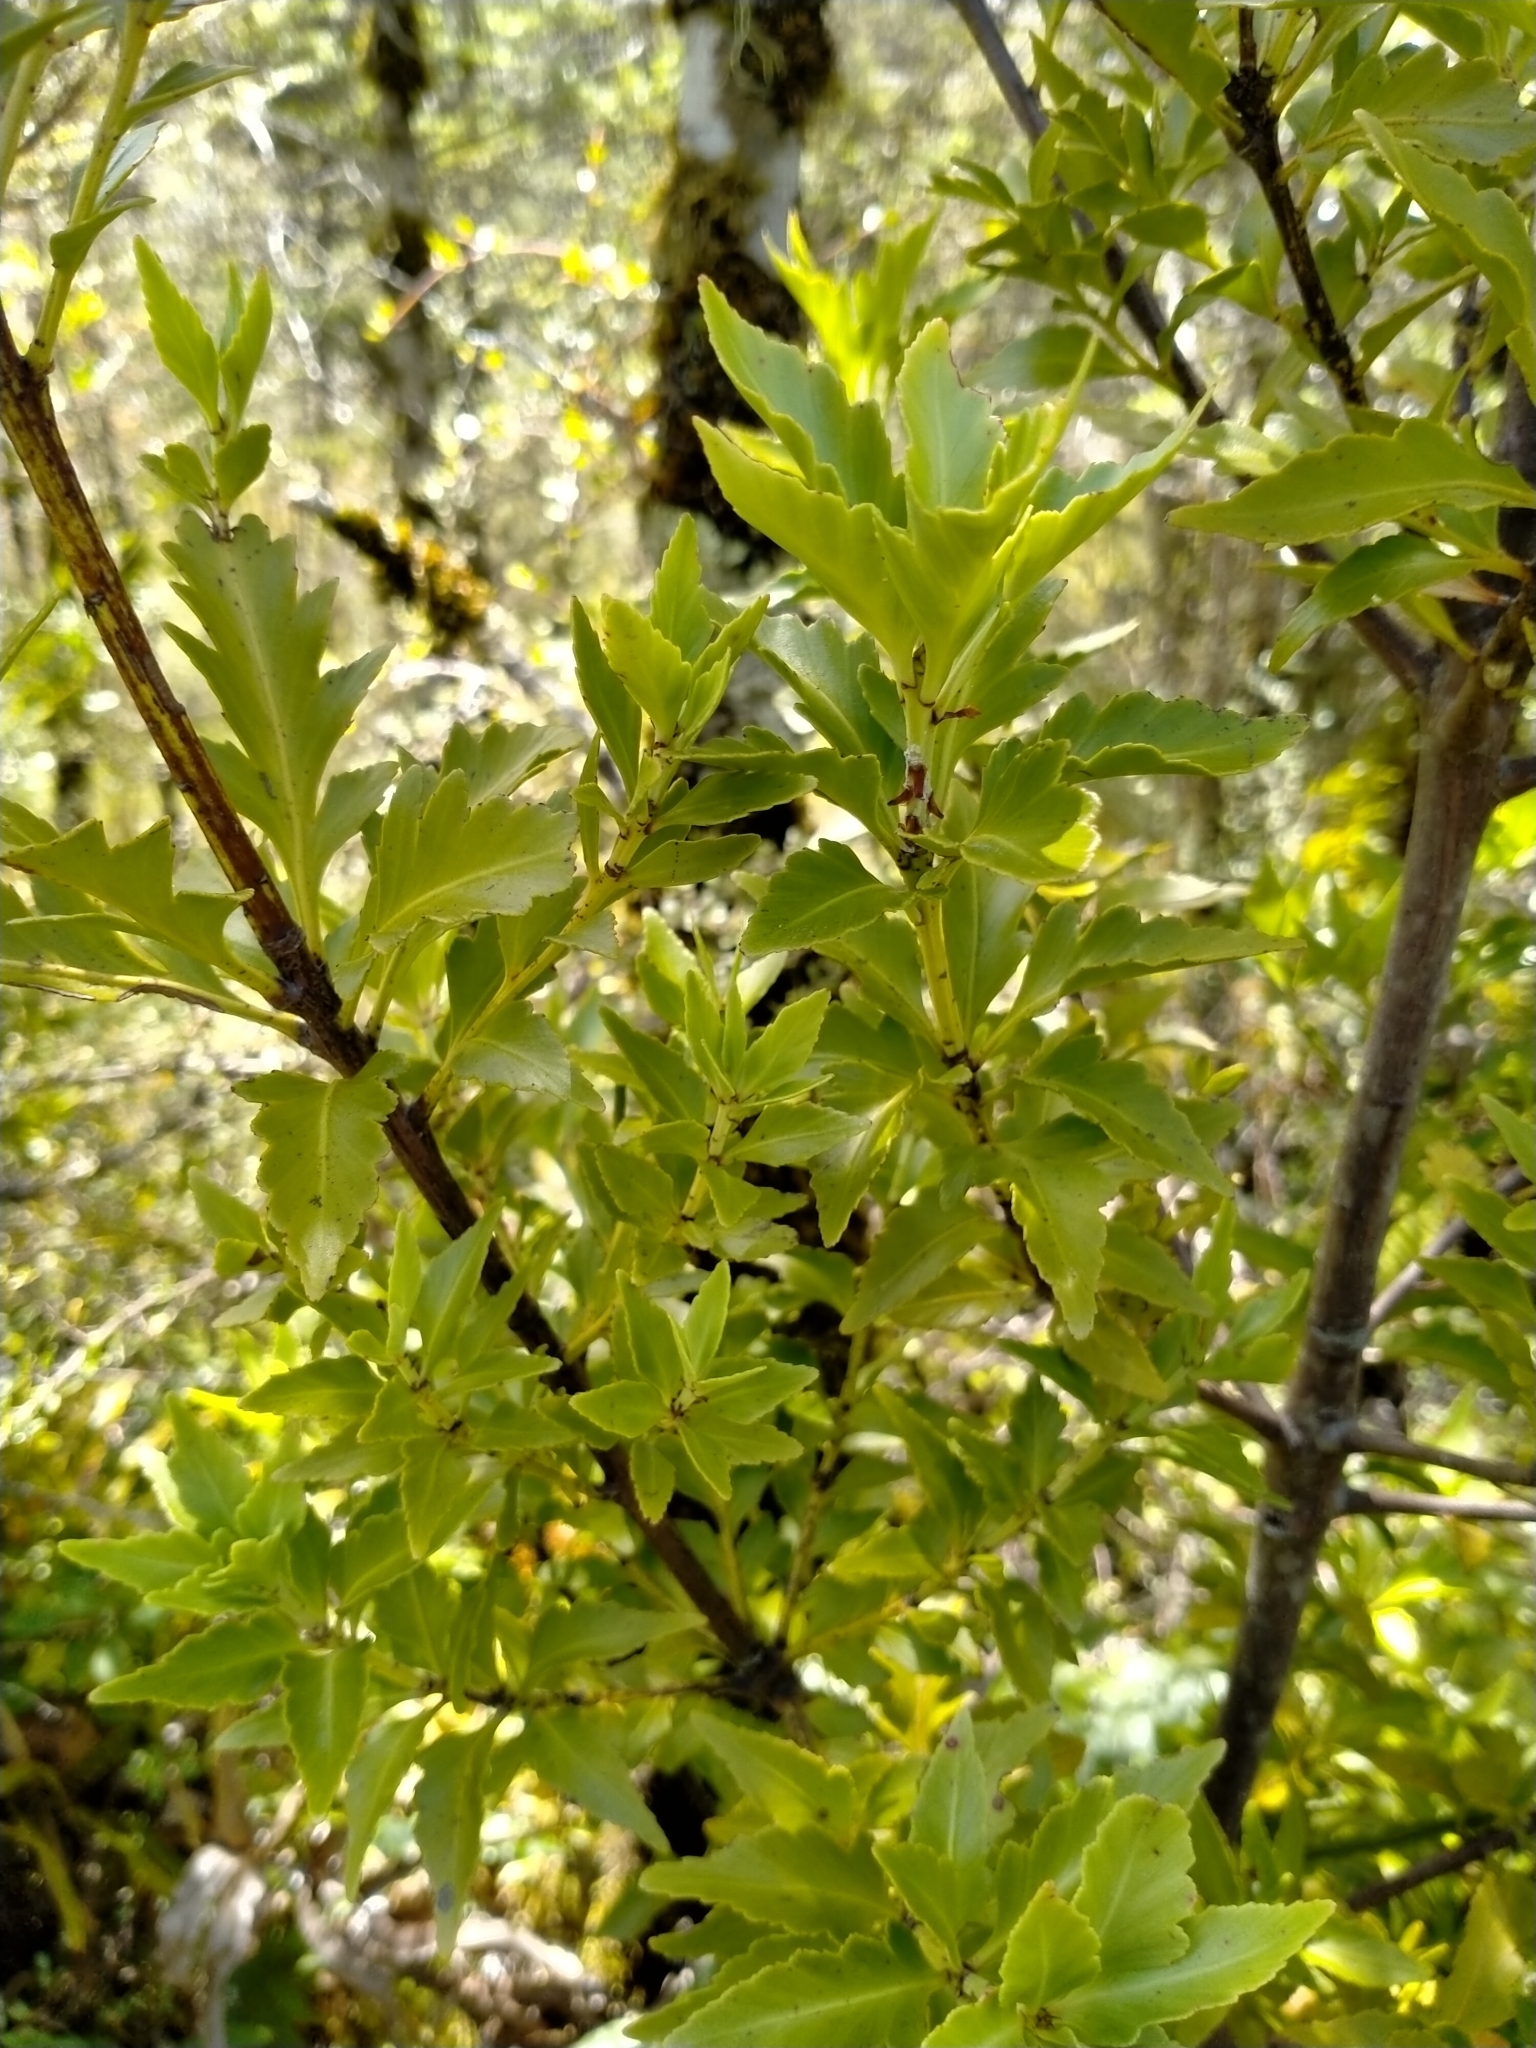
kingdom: Plantae
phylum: Tracheophyta
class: Pinopsida
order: Pinales
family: Phyllocladaceae
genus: Phyllocladus
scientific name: Phyllocladus trichomanoides
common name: Celery pine
